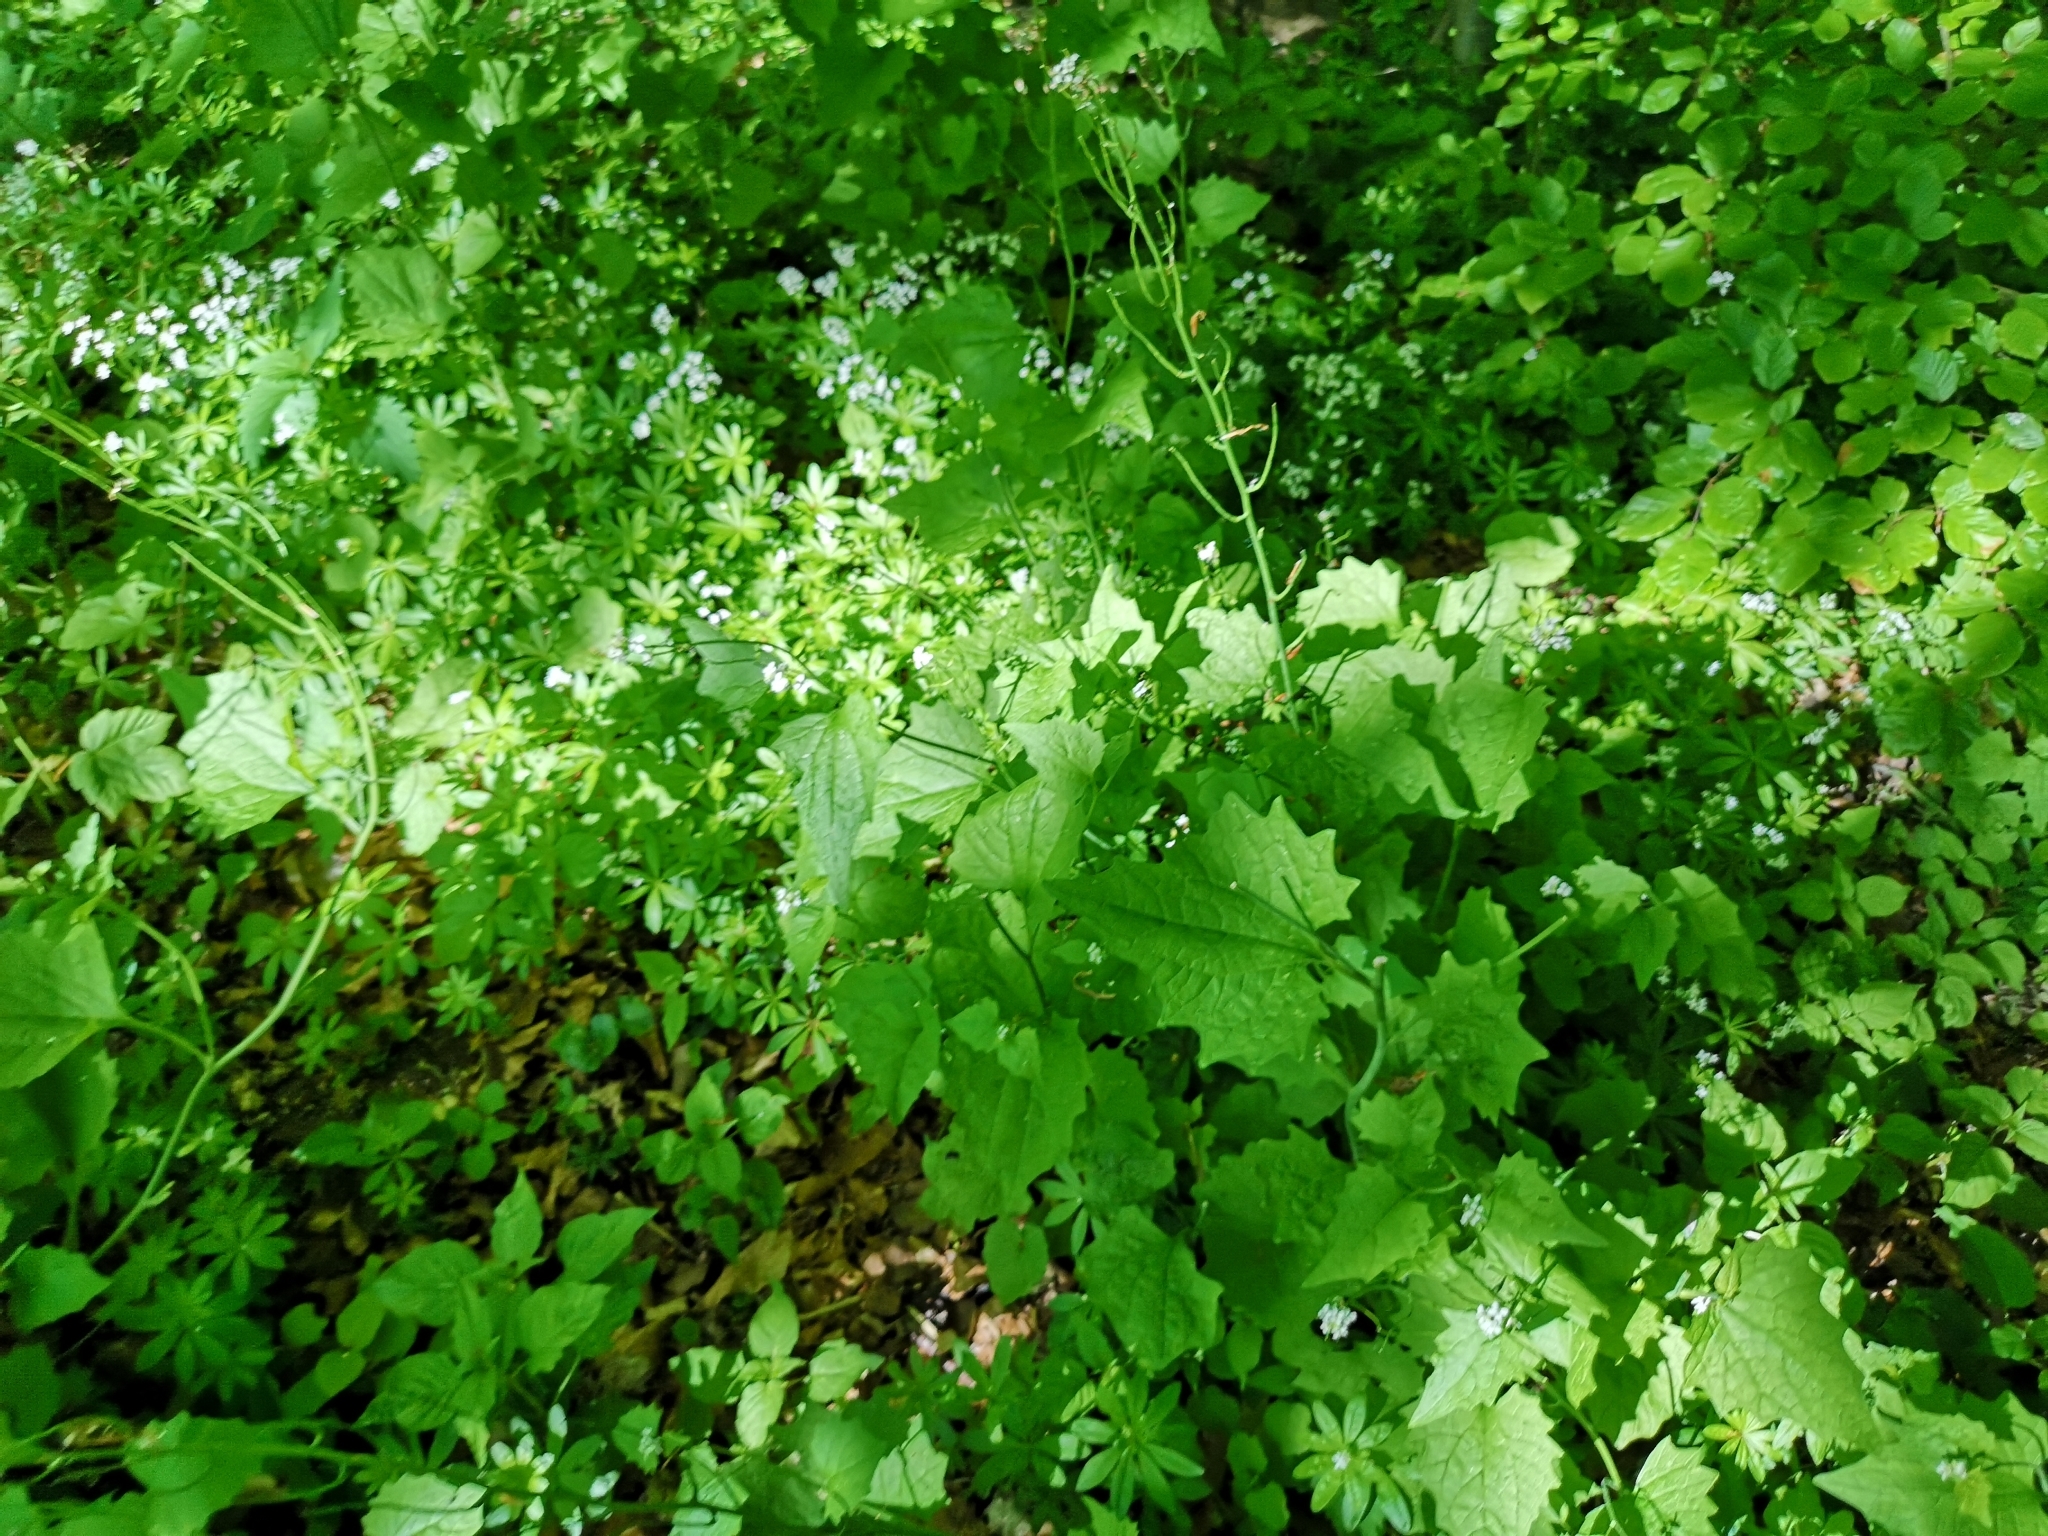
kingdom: Plantae
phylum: Tracheophyta
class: Magnoliopsida
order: Brassicales
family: Brassicaceae
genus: Alliaria
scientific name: Alliaria petiolata
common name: Garlic mustard
